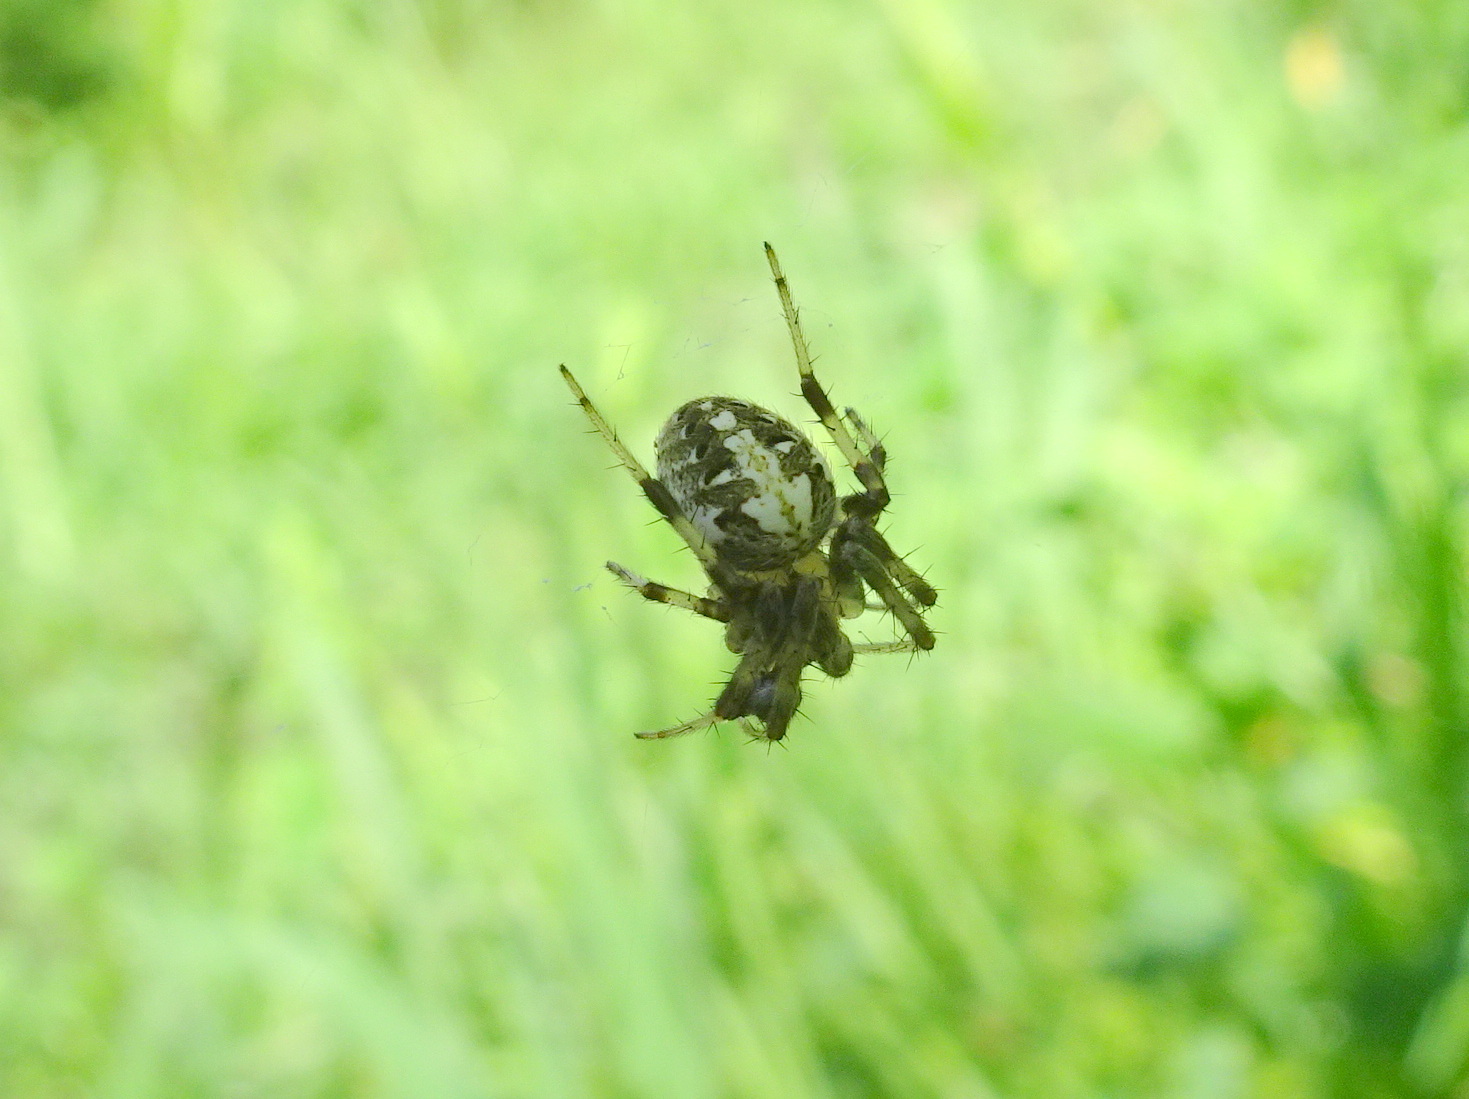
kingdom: Animalia
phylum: Arthropoda
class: Arachnida
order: Araneae
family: Araneidae
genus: Neoscona
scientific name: Neoscona arabesca
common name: Orb weavers
